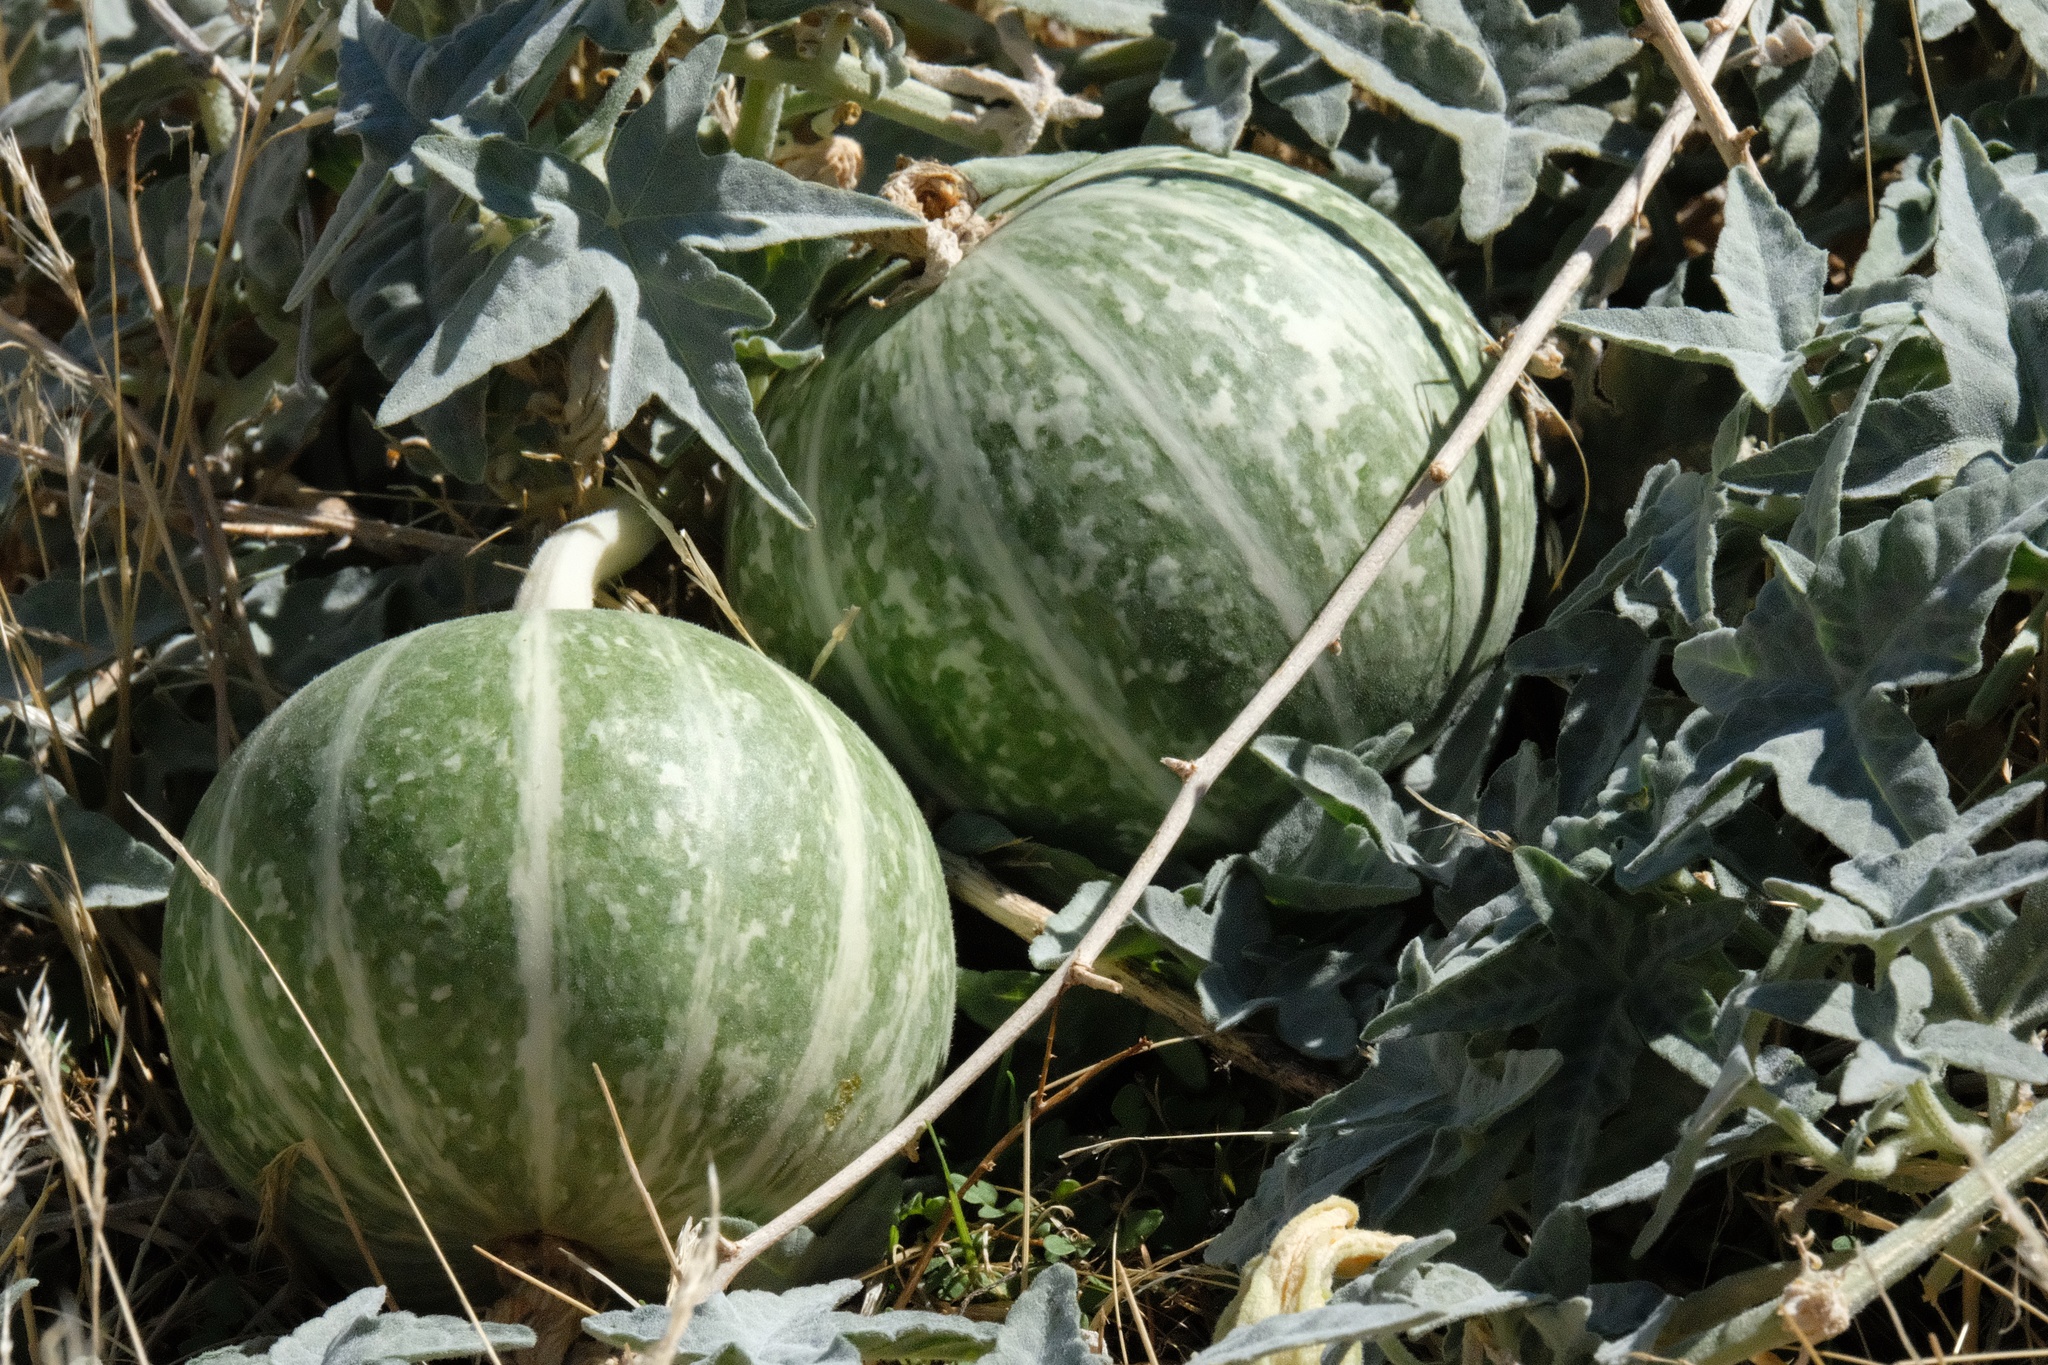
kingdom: Plantae
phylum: Tracheophyta
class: Magnoliopsida
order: Cucurbitales
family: Cucurbitaceae
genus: Cucurbita
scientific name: Cucurbita palmata
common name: Coyote-melon
